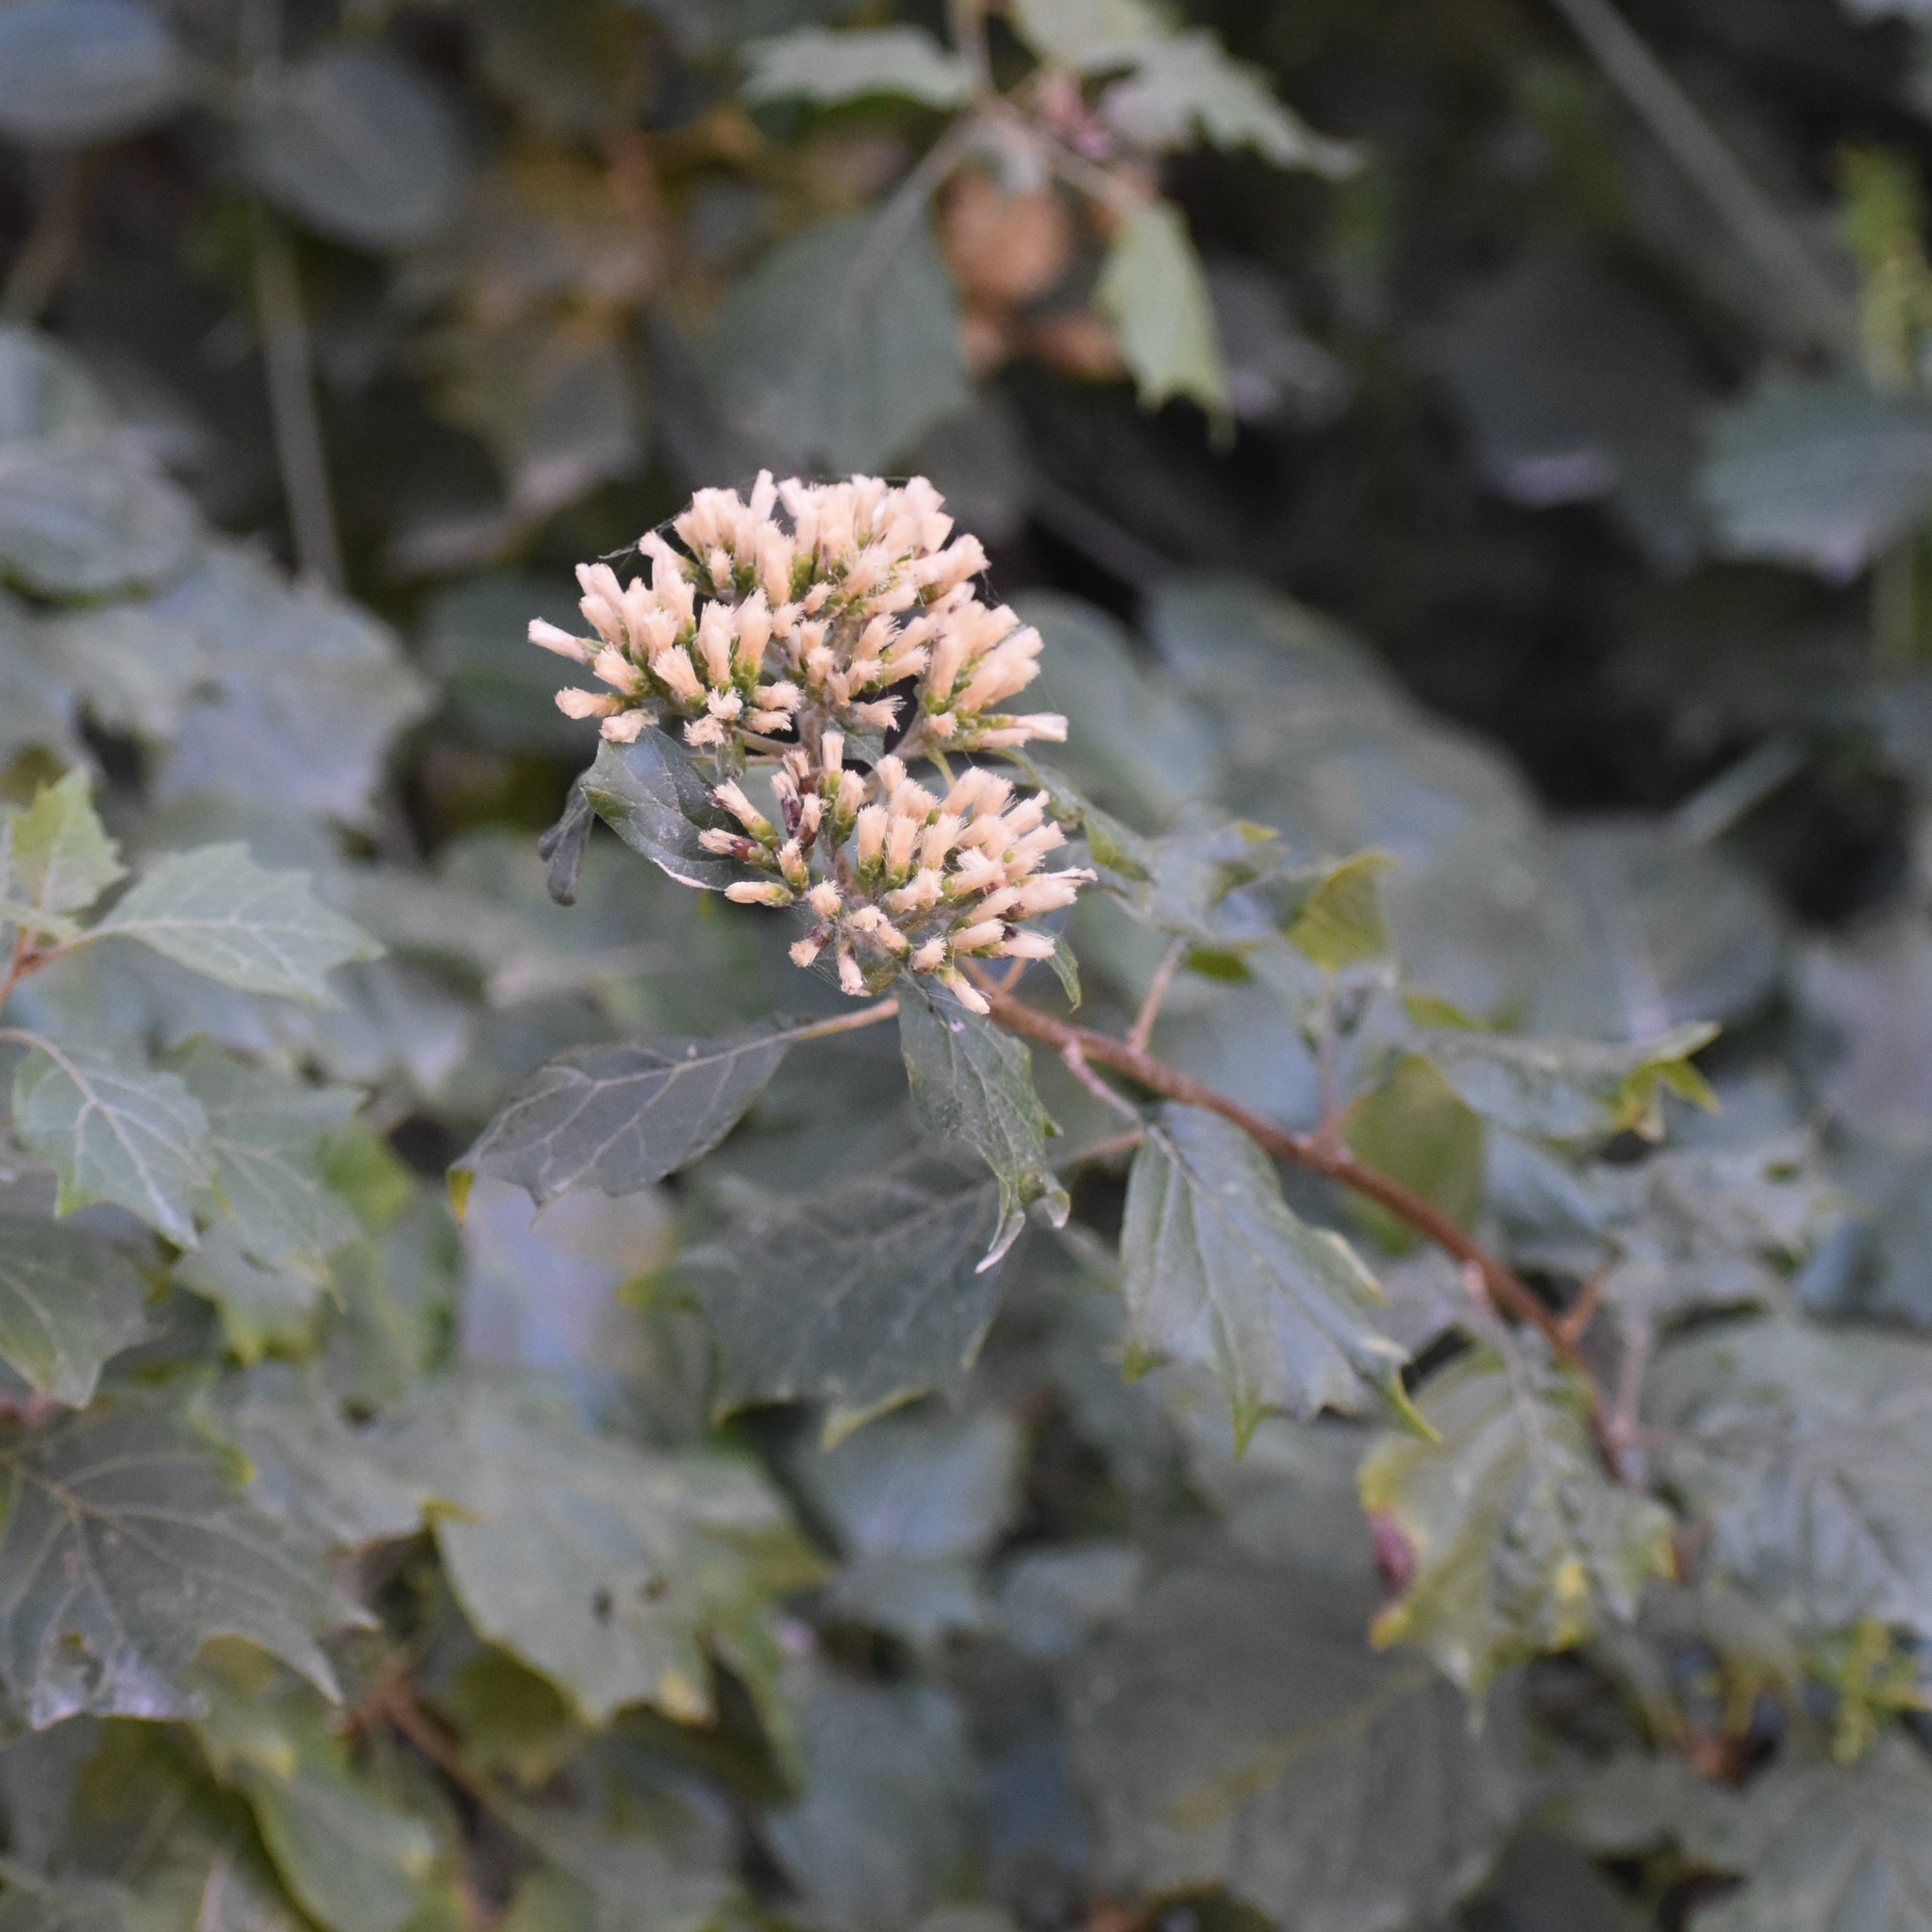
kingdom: Plantae
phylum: Tracheophyta
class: Magnoliopsida
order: Asterales
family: Asteraceae
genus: Gymnanthemum
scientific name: Gymnanthemum capense
